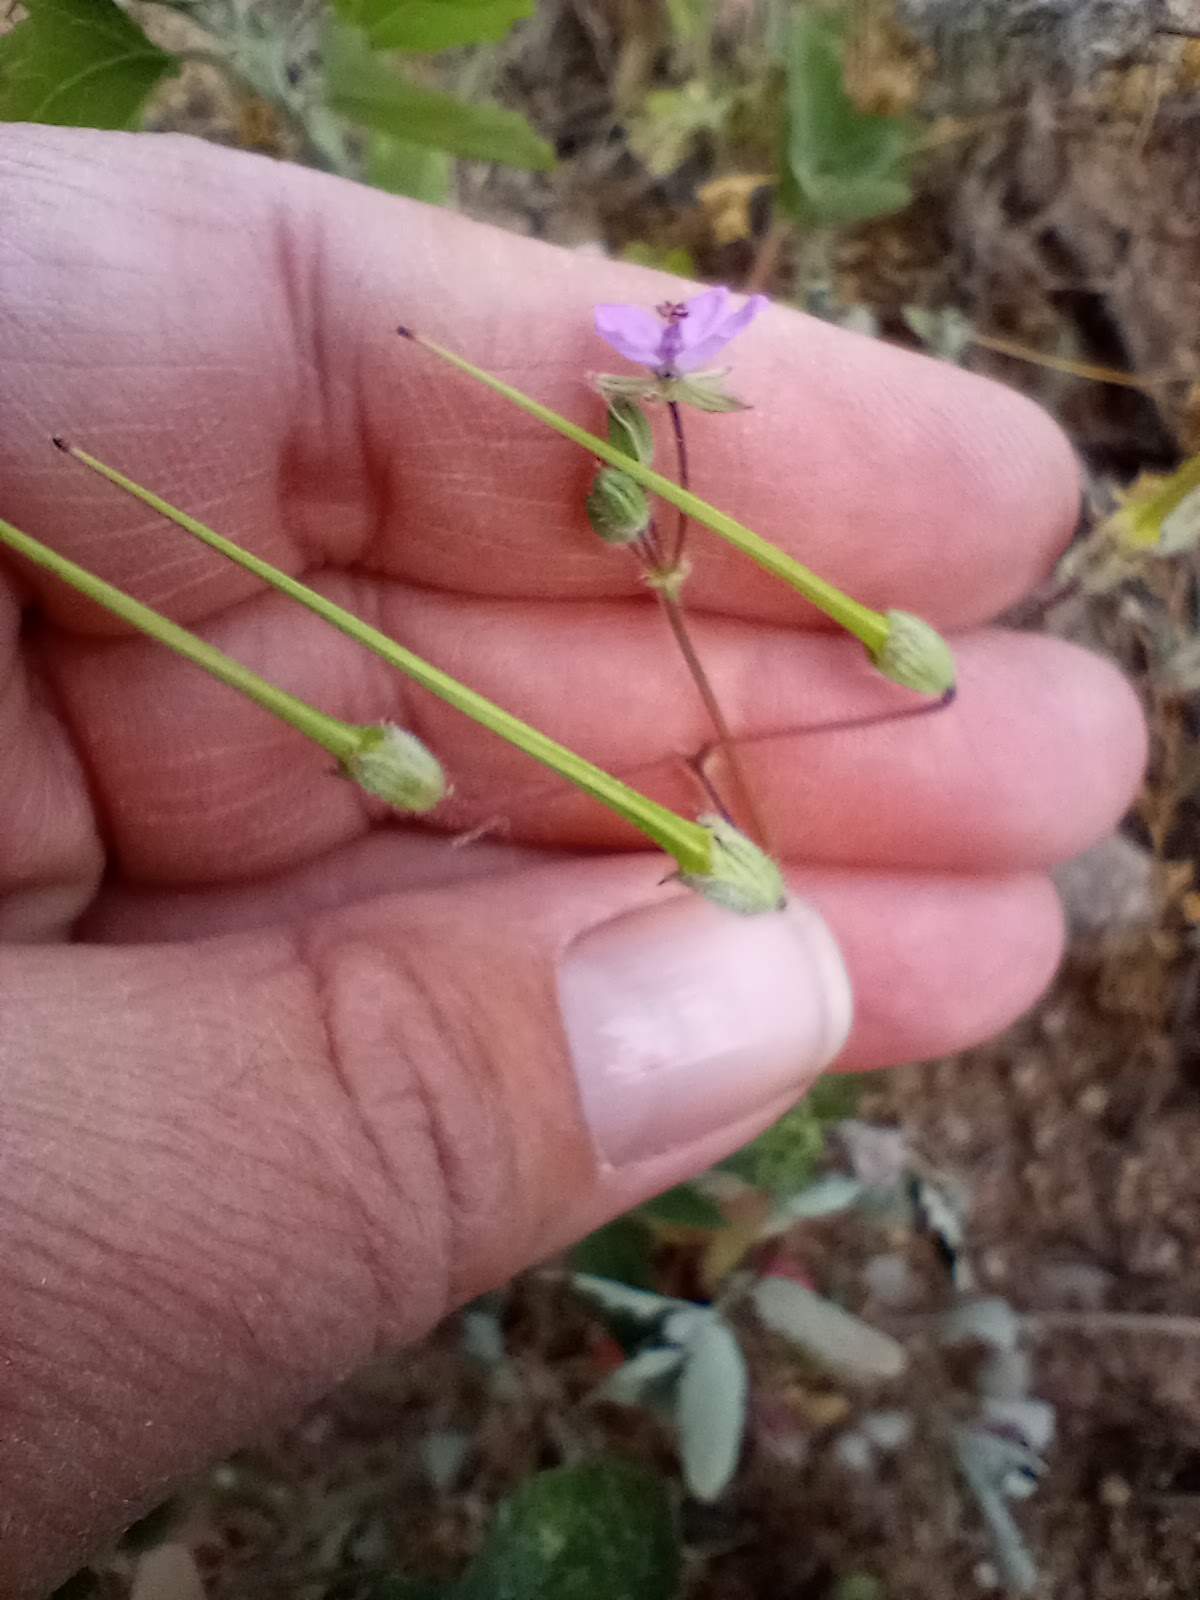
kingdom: Plantae
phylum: Tracheophyta
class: Magnoliopsida
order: Geraniales
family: Geraniaceae
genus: Erodium
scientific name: Erodium cicutarium
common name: Common stork's-bill
